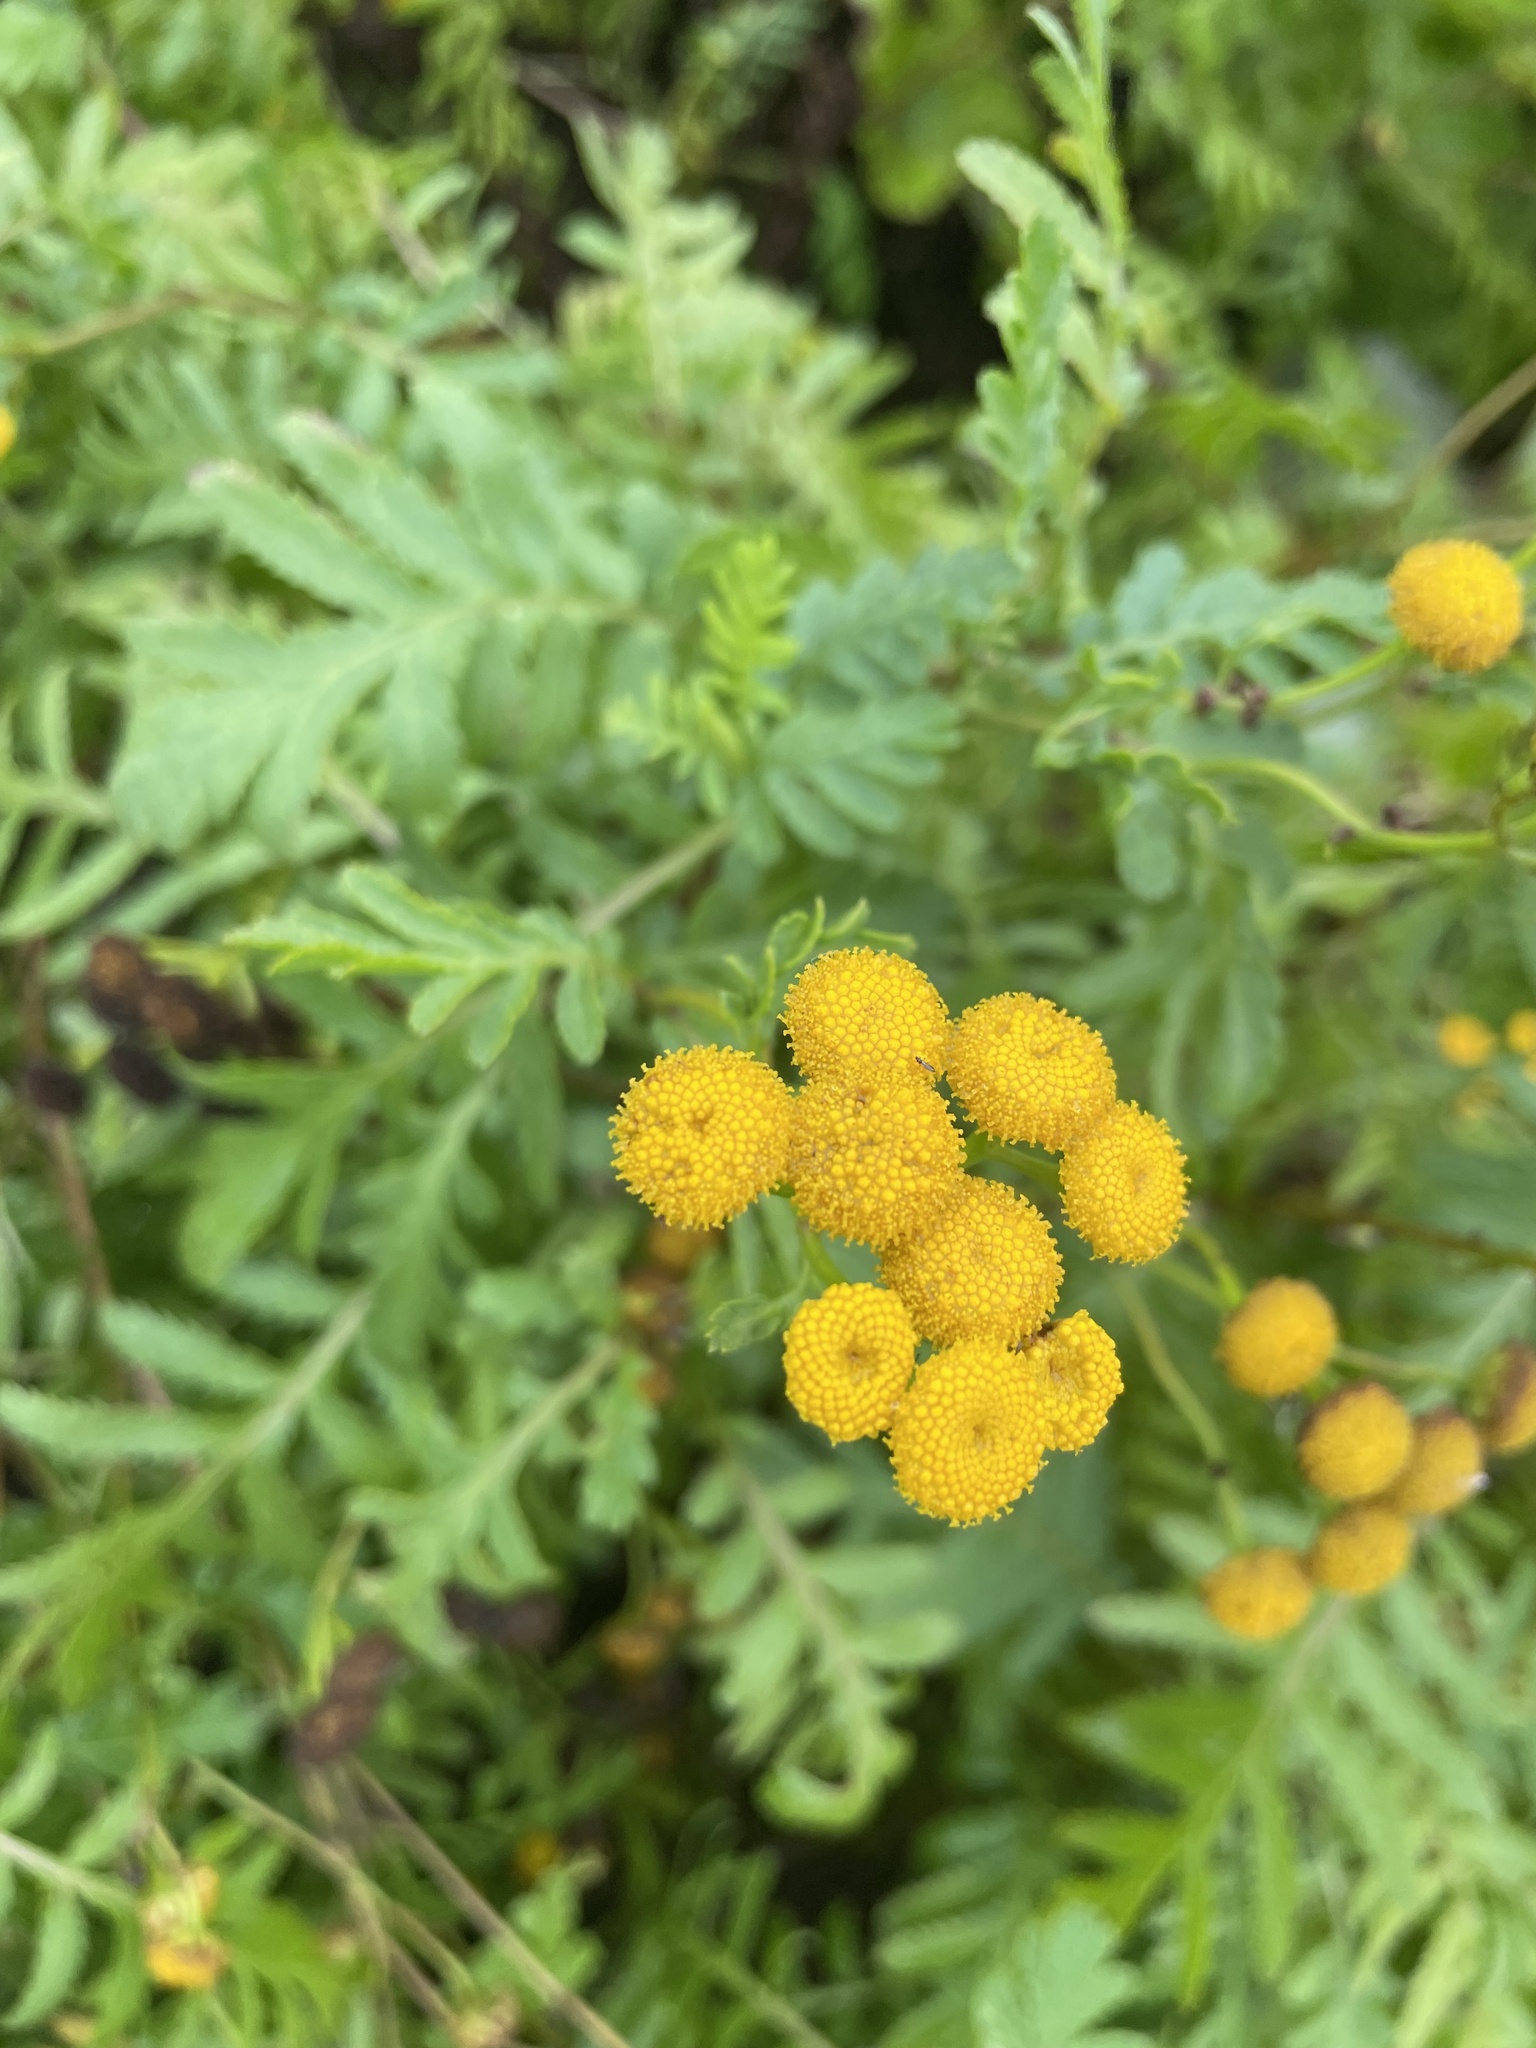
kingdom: Plantae
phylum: Tracheophyta
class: Magnoliopsida
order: Asterales
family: Asteraceae
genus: Tanacetum
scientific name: Tanacetum vulgare
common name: Common tansy
